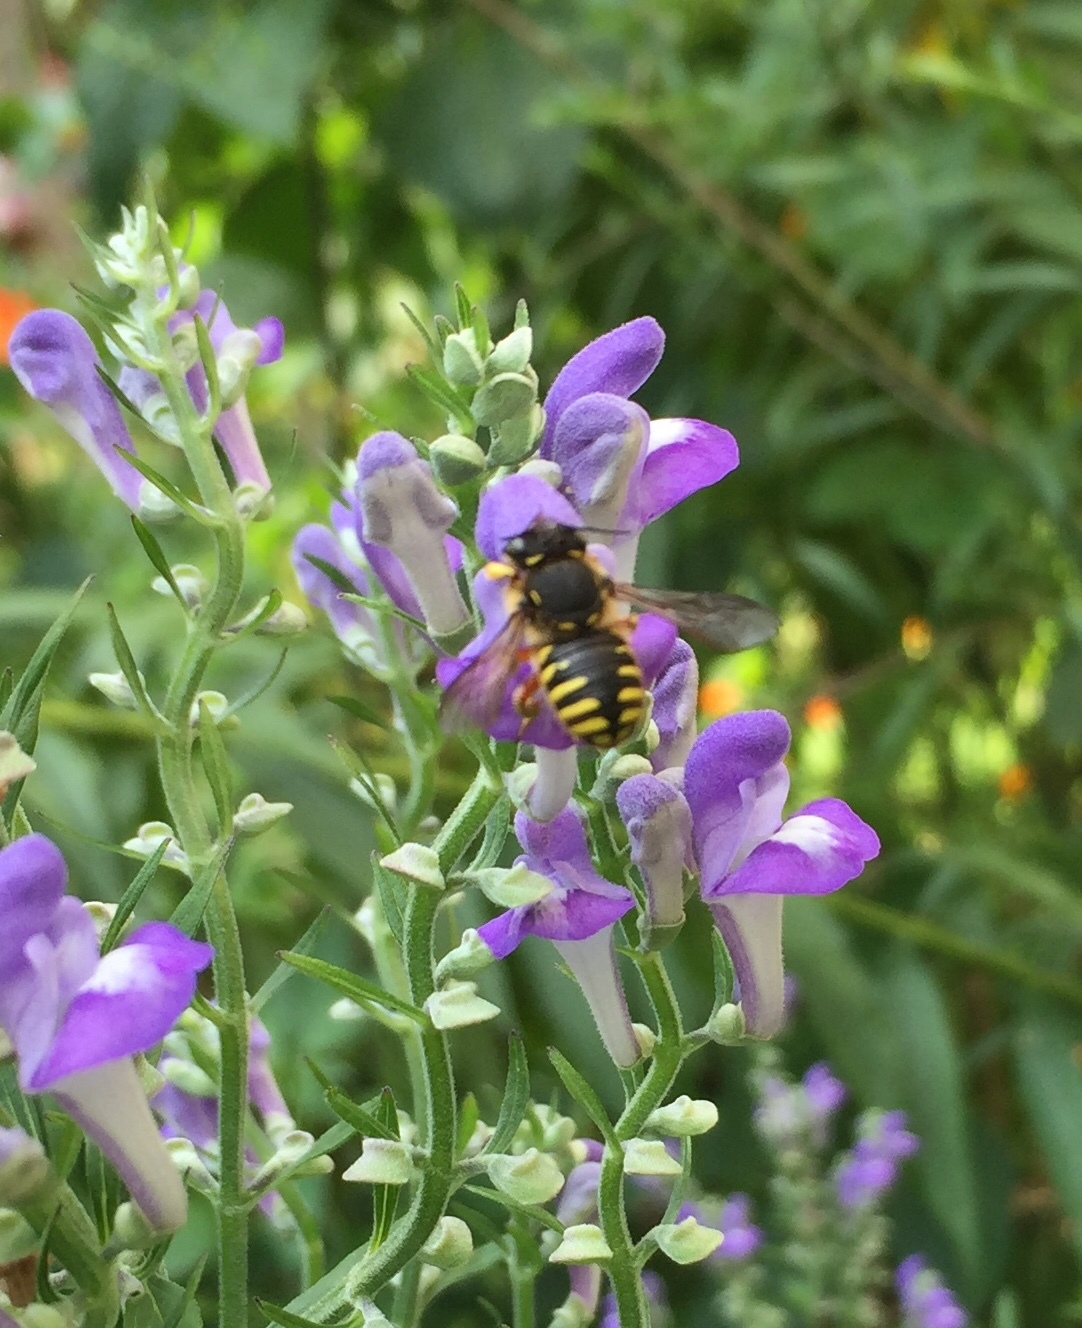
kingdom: Animalia
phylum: Arthropoda
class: Insecta
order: Hymenoptera
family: Megachilidae
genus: Anthidium
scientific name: Anthidium manicatum
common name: Wool carder bee
